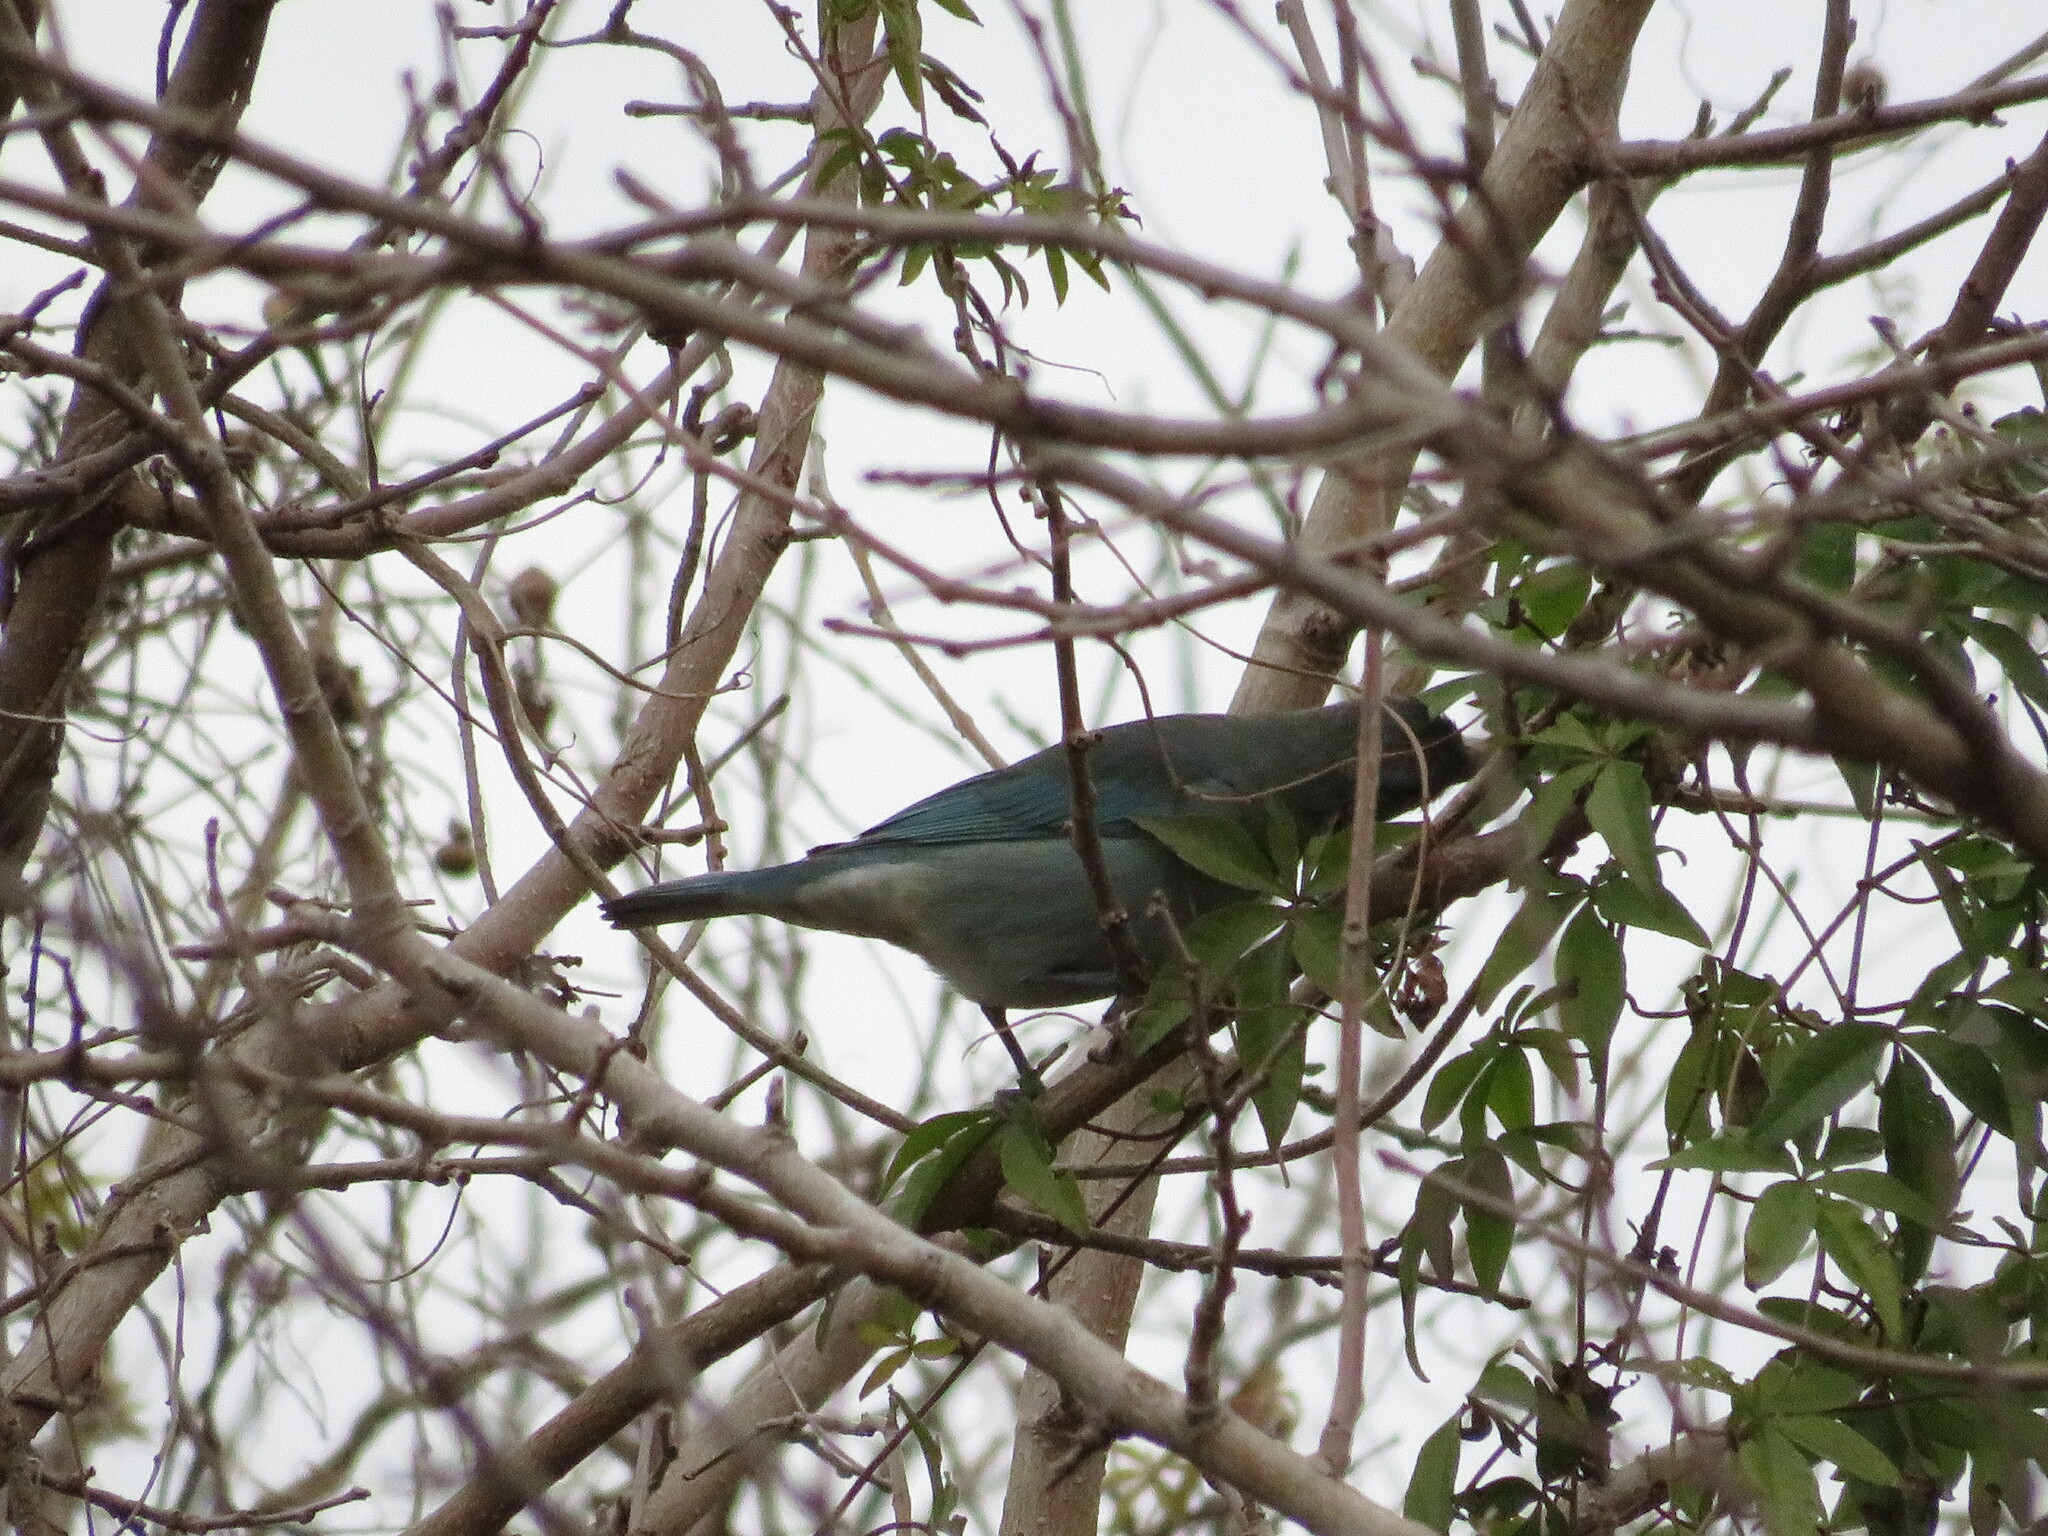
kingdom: Animalia
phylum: Chordata
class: Aves
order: Passeriformes
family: Thraupidae
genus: Thraupis
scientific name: Thraupis sayaca
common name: Sayaca tanager
